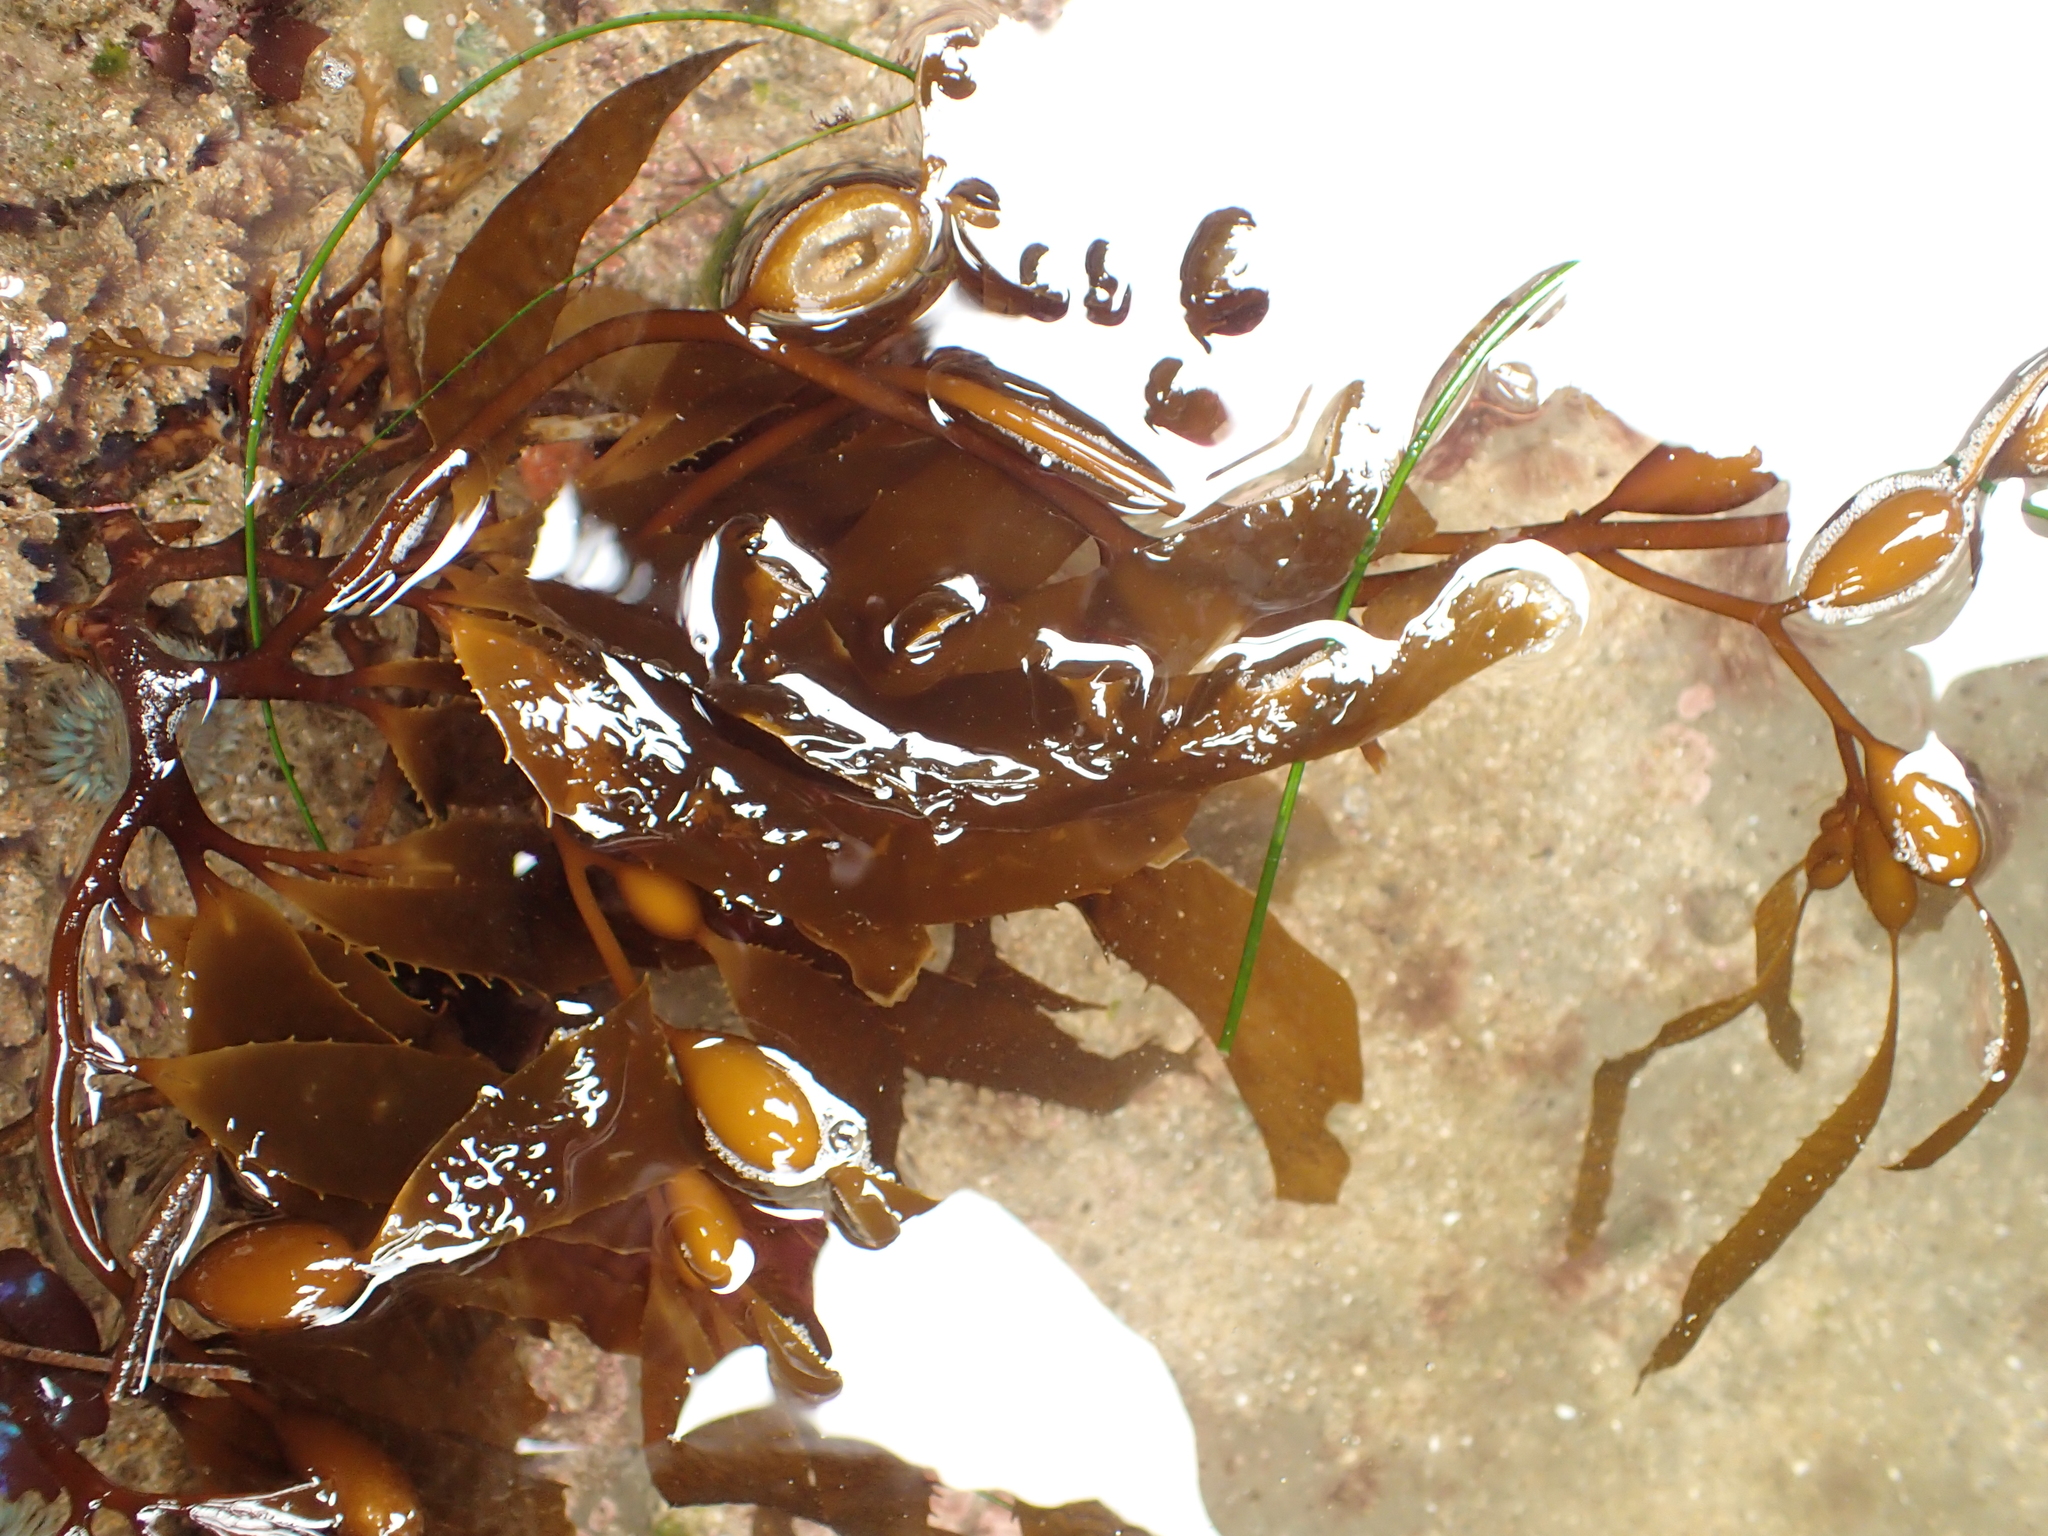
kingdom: Chromista
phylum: Ochrophyta
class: Phaeophyceae
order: Laminariales
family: Laminariaceae
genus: Macrocystis
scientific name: Macrocystis pyrifera
